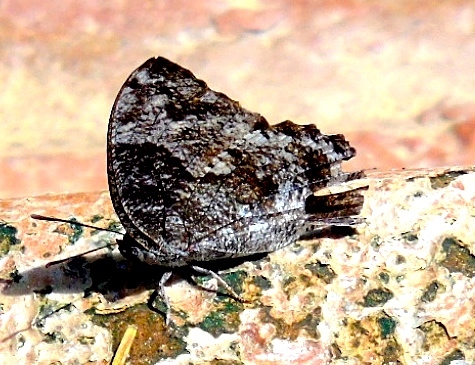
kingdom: Animalia
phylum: Arthropoda
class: Insecta
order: Lepidoptera
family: Nymphalidae
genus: Anaea
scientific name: Anaea
